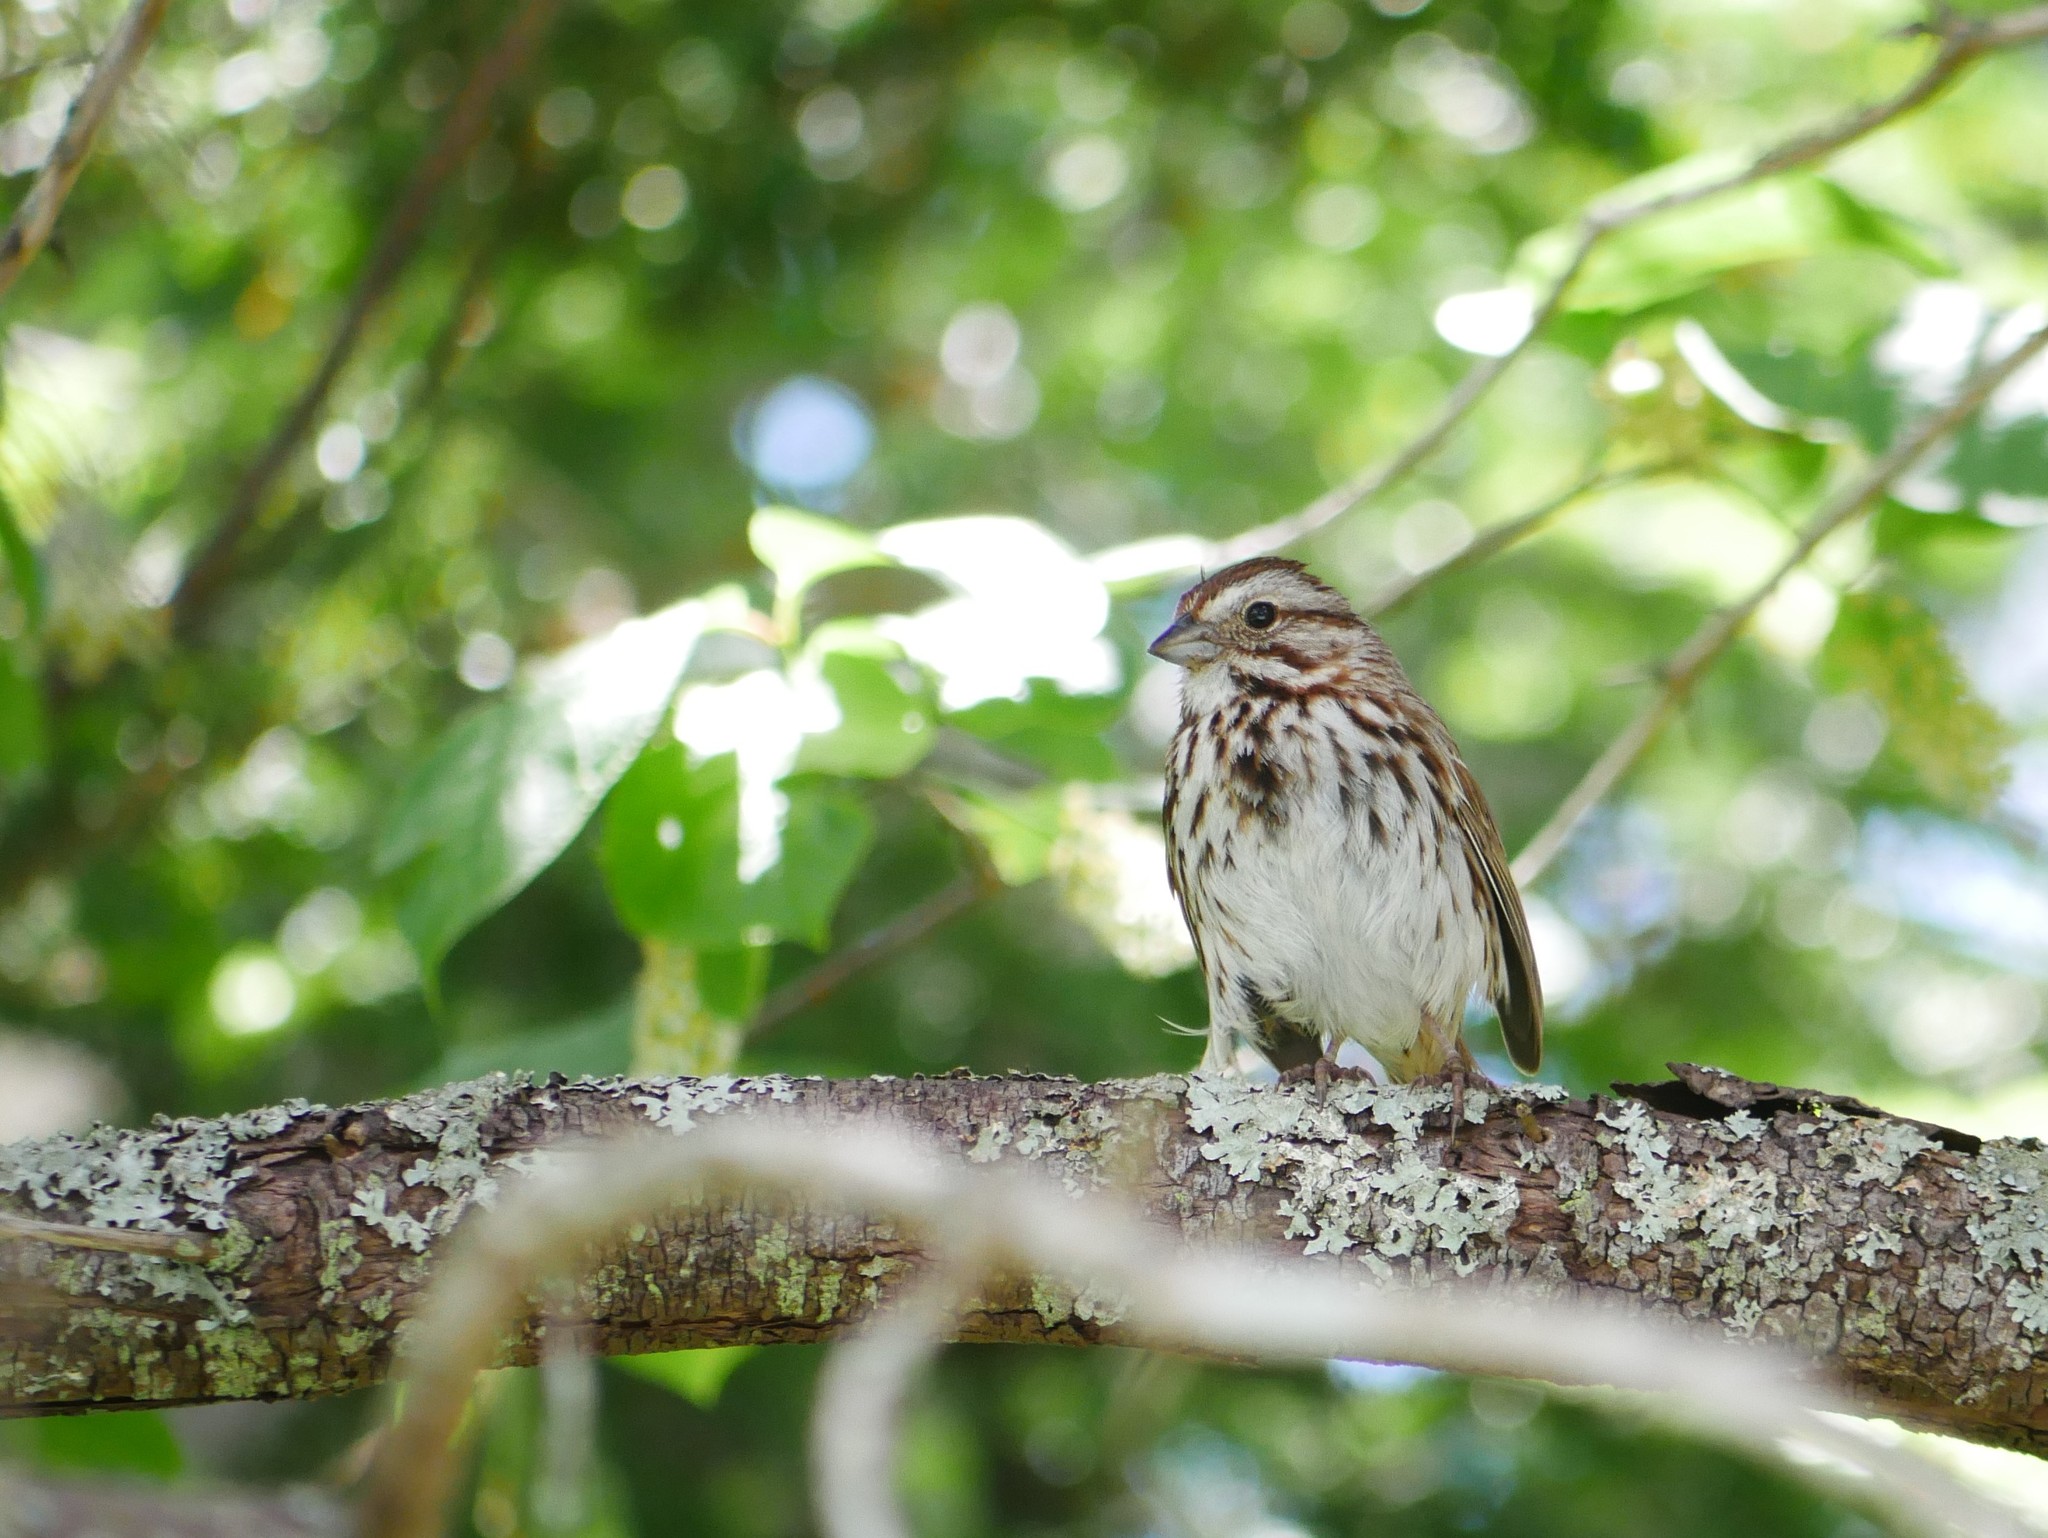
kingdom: Animalia
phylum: Chordata
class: Aves
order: Passeriformes
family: Passerellidae
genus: Melospiza
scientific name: Melospiza melodia
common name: Song sparrow
